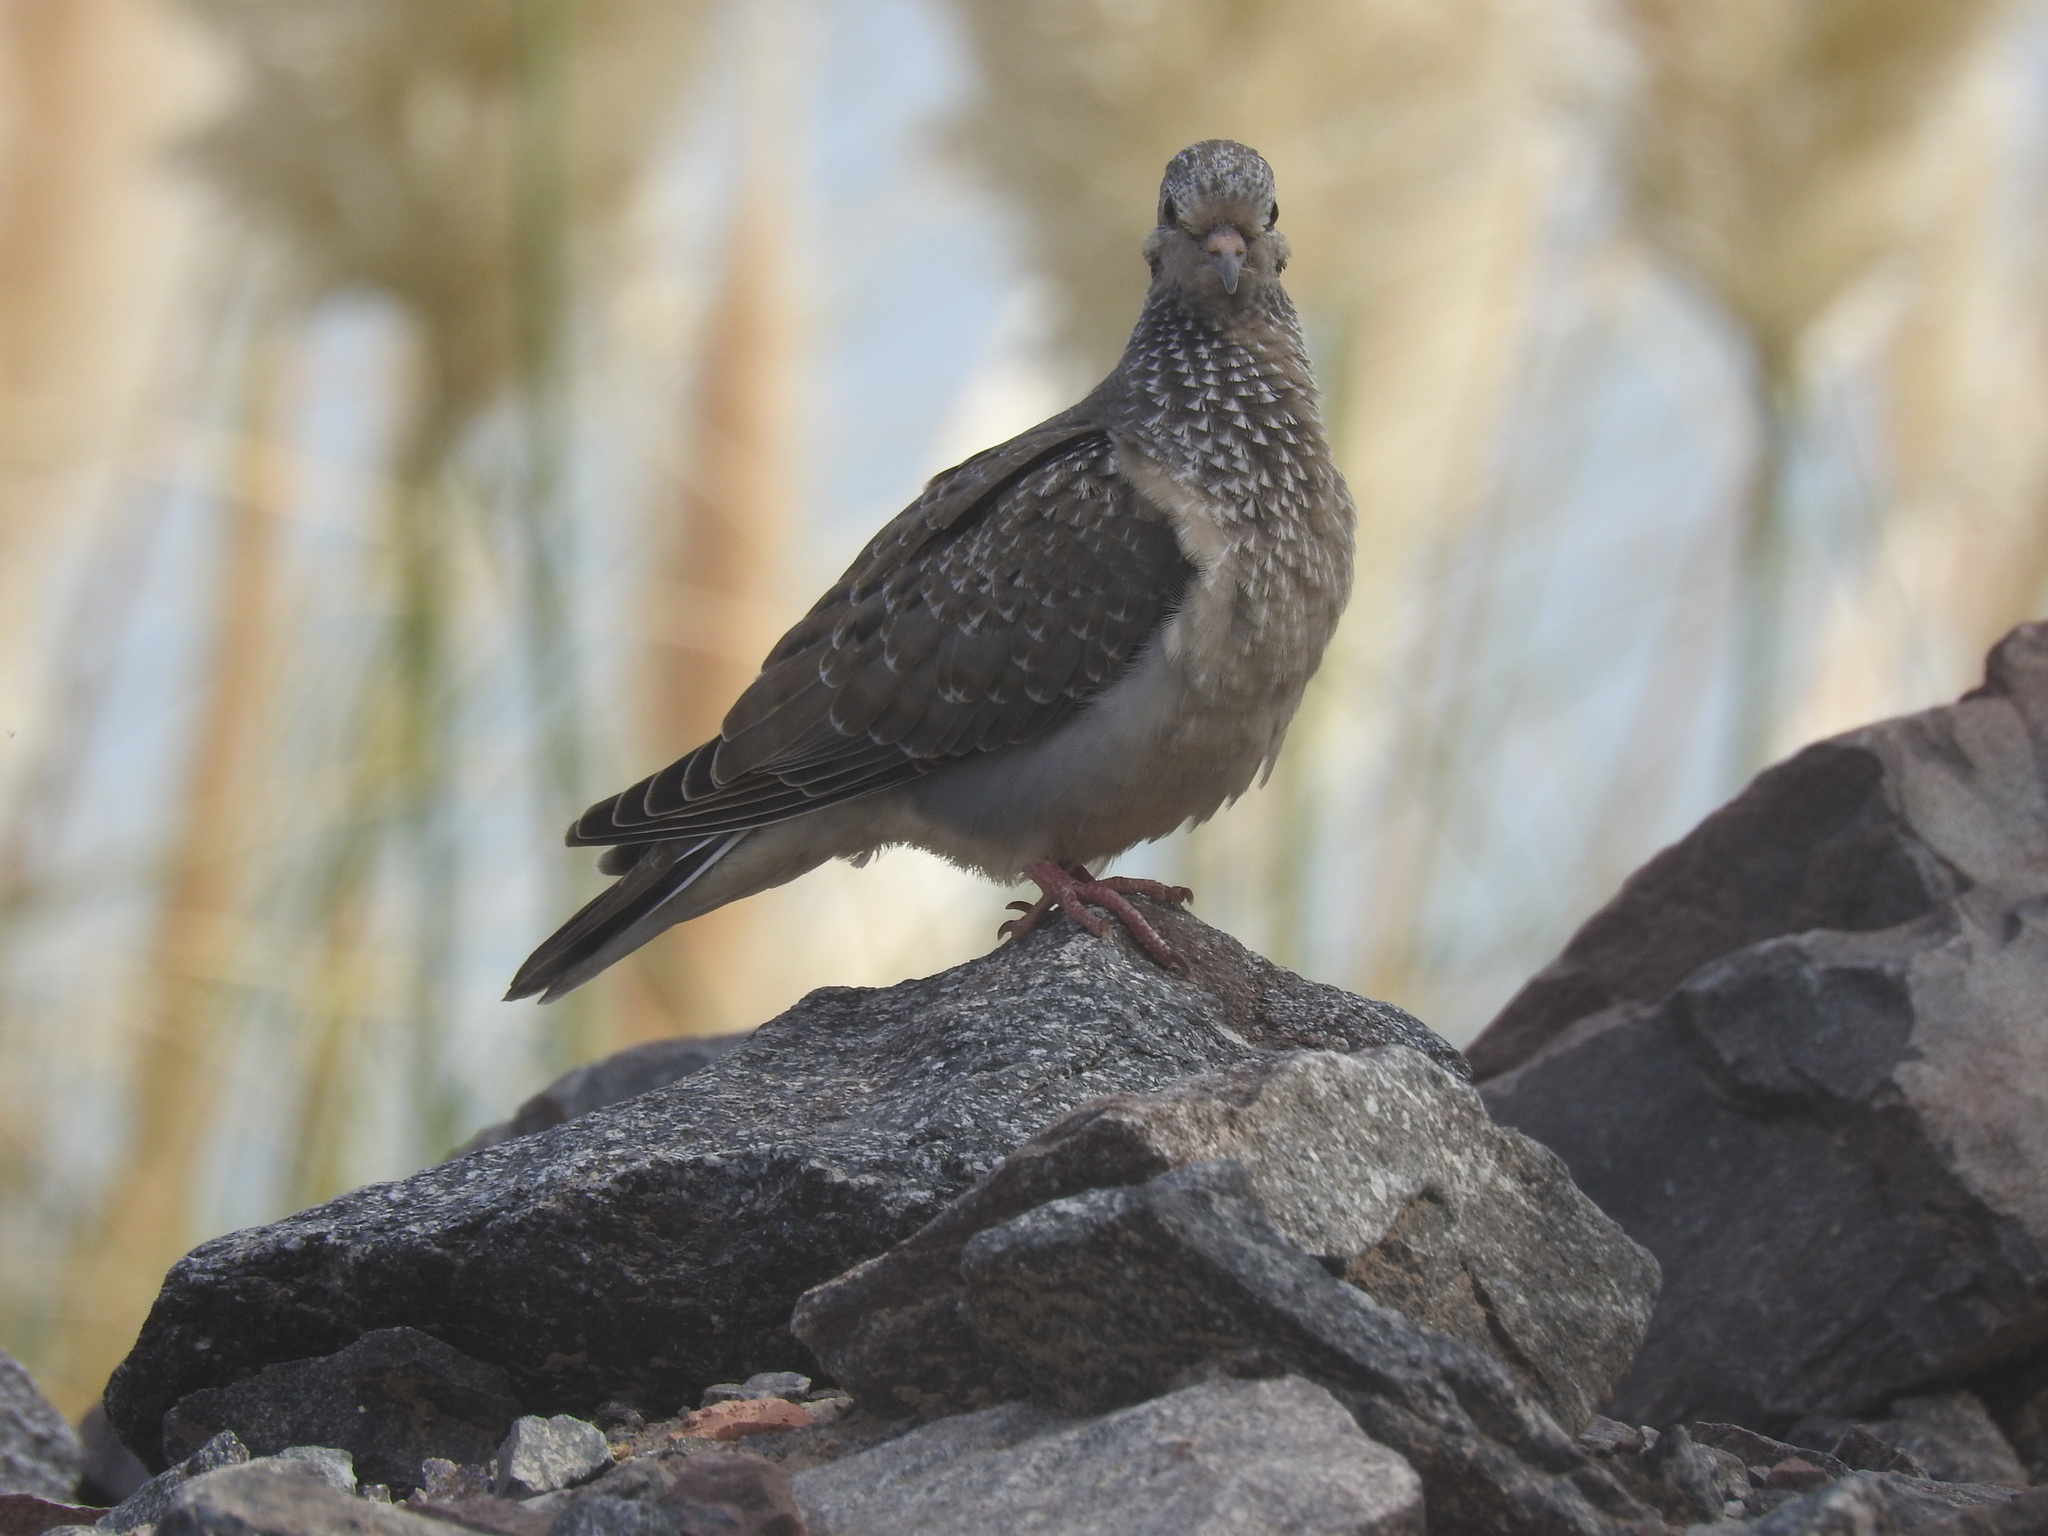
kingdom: Animalia
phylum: Chordata
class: Aves
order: Columbiformes
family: Columbidae
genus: Zenaida
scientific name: Zenaida auriculata
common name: Eared dove
